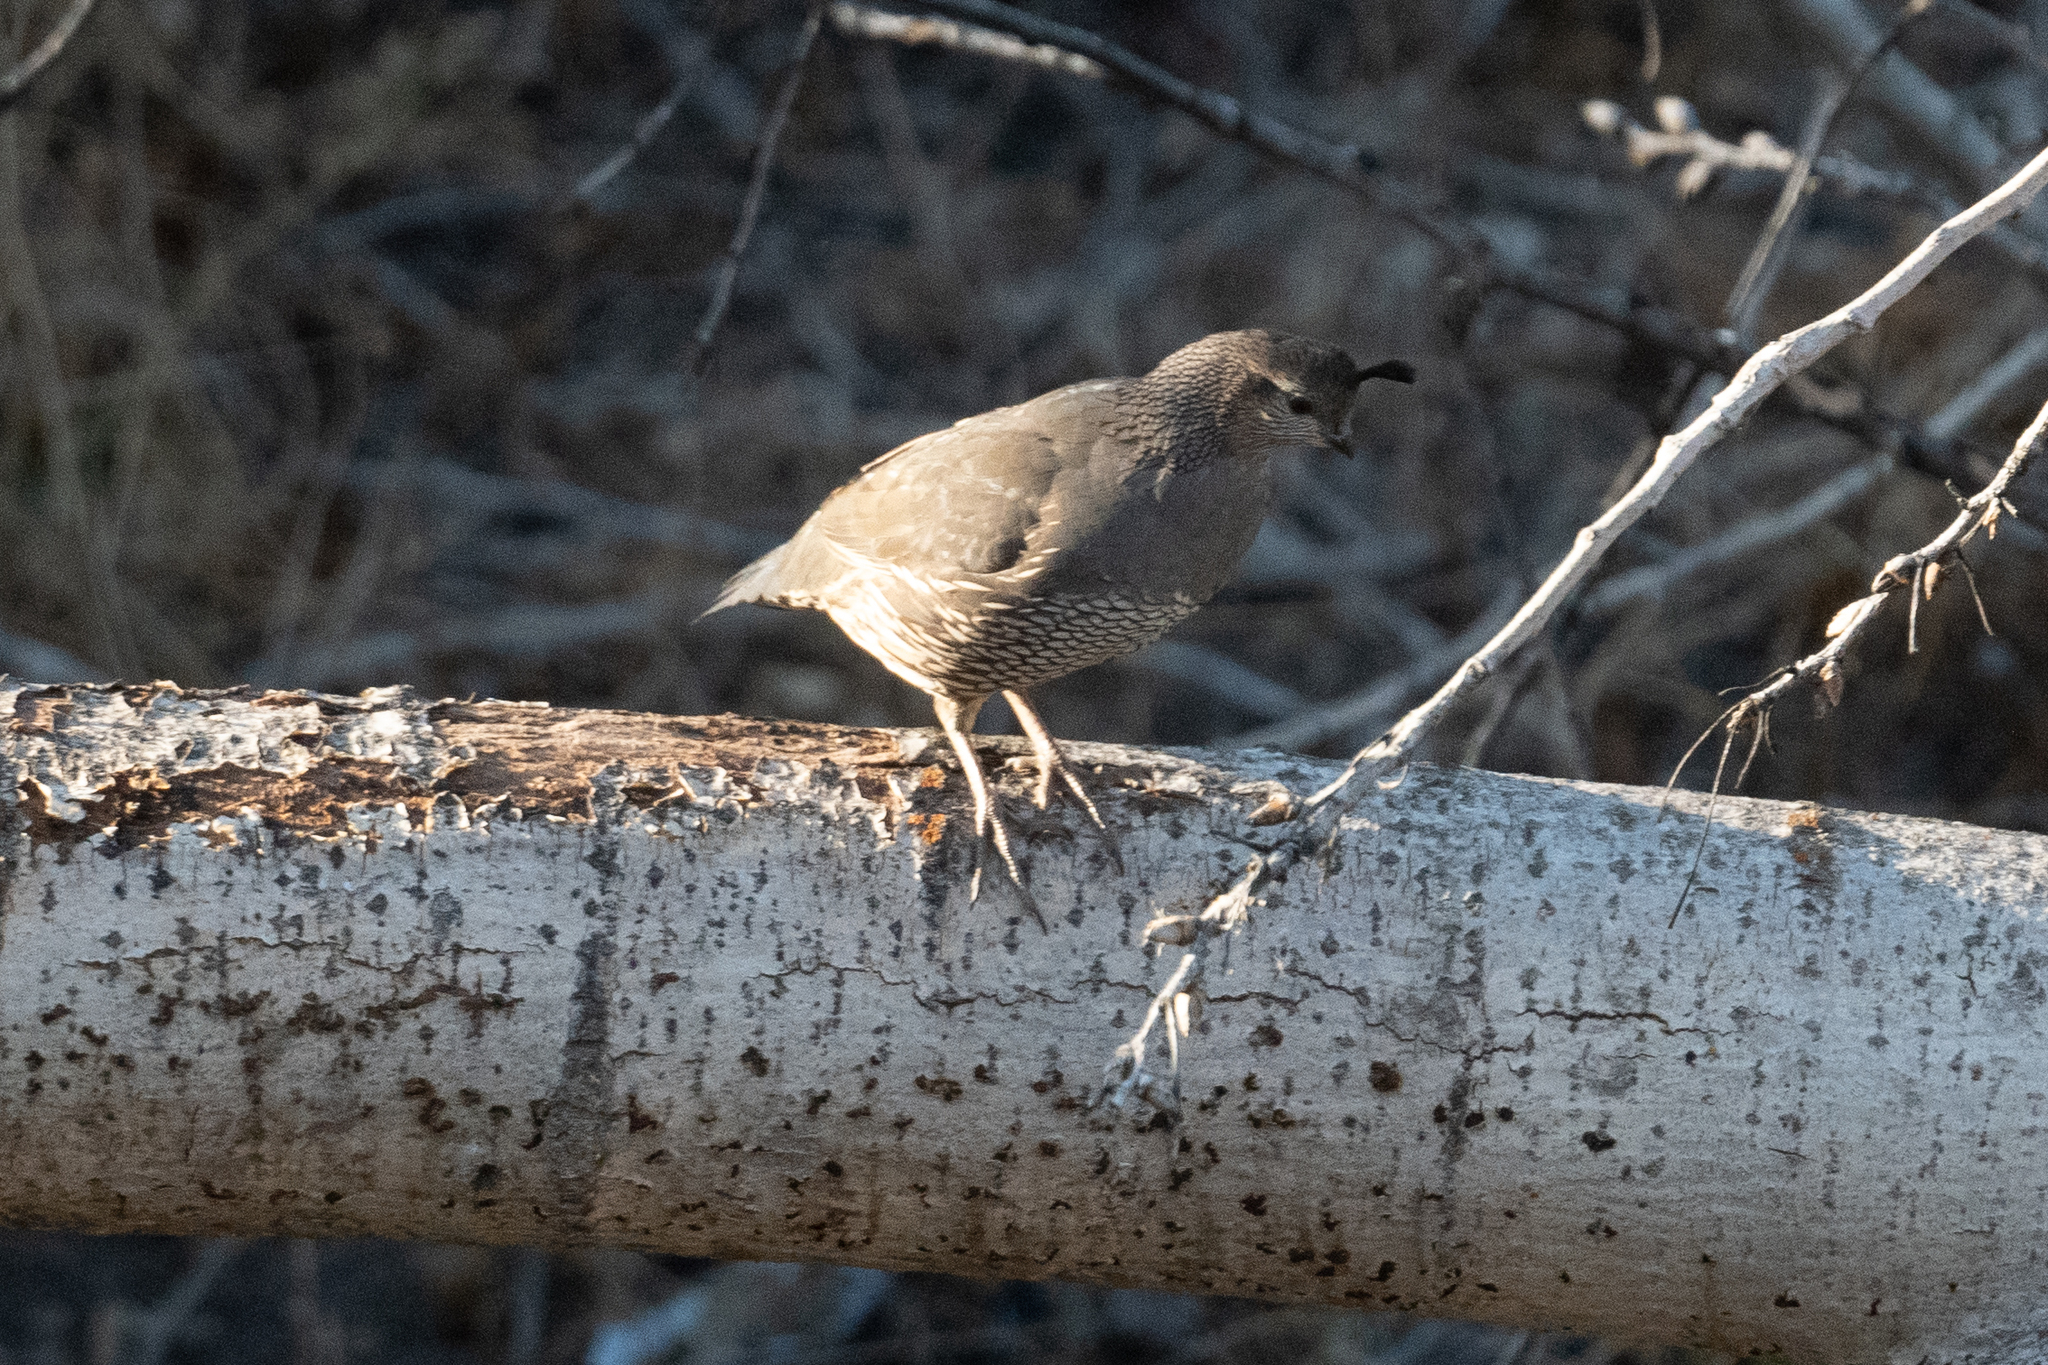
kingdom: Animalia
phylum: Chordata
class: Aves
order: Galliformes
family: Odontophoridae
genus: Callipepla
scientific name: Callipepla californica
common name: California quail
